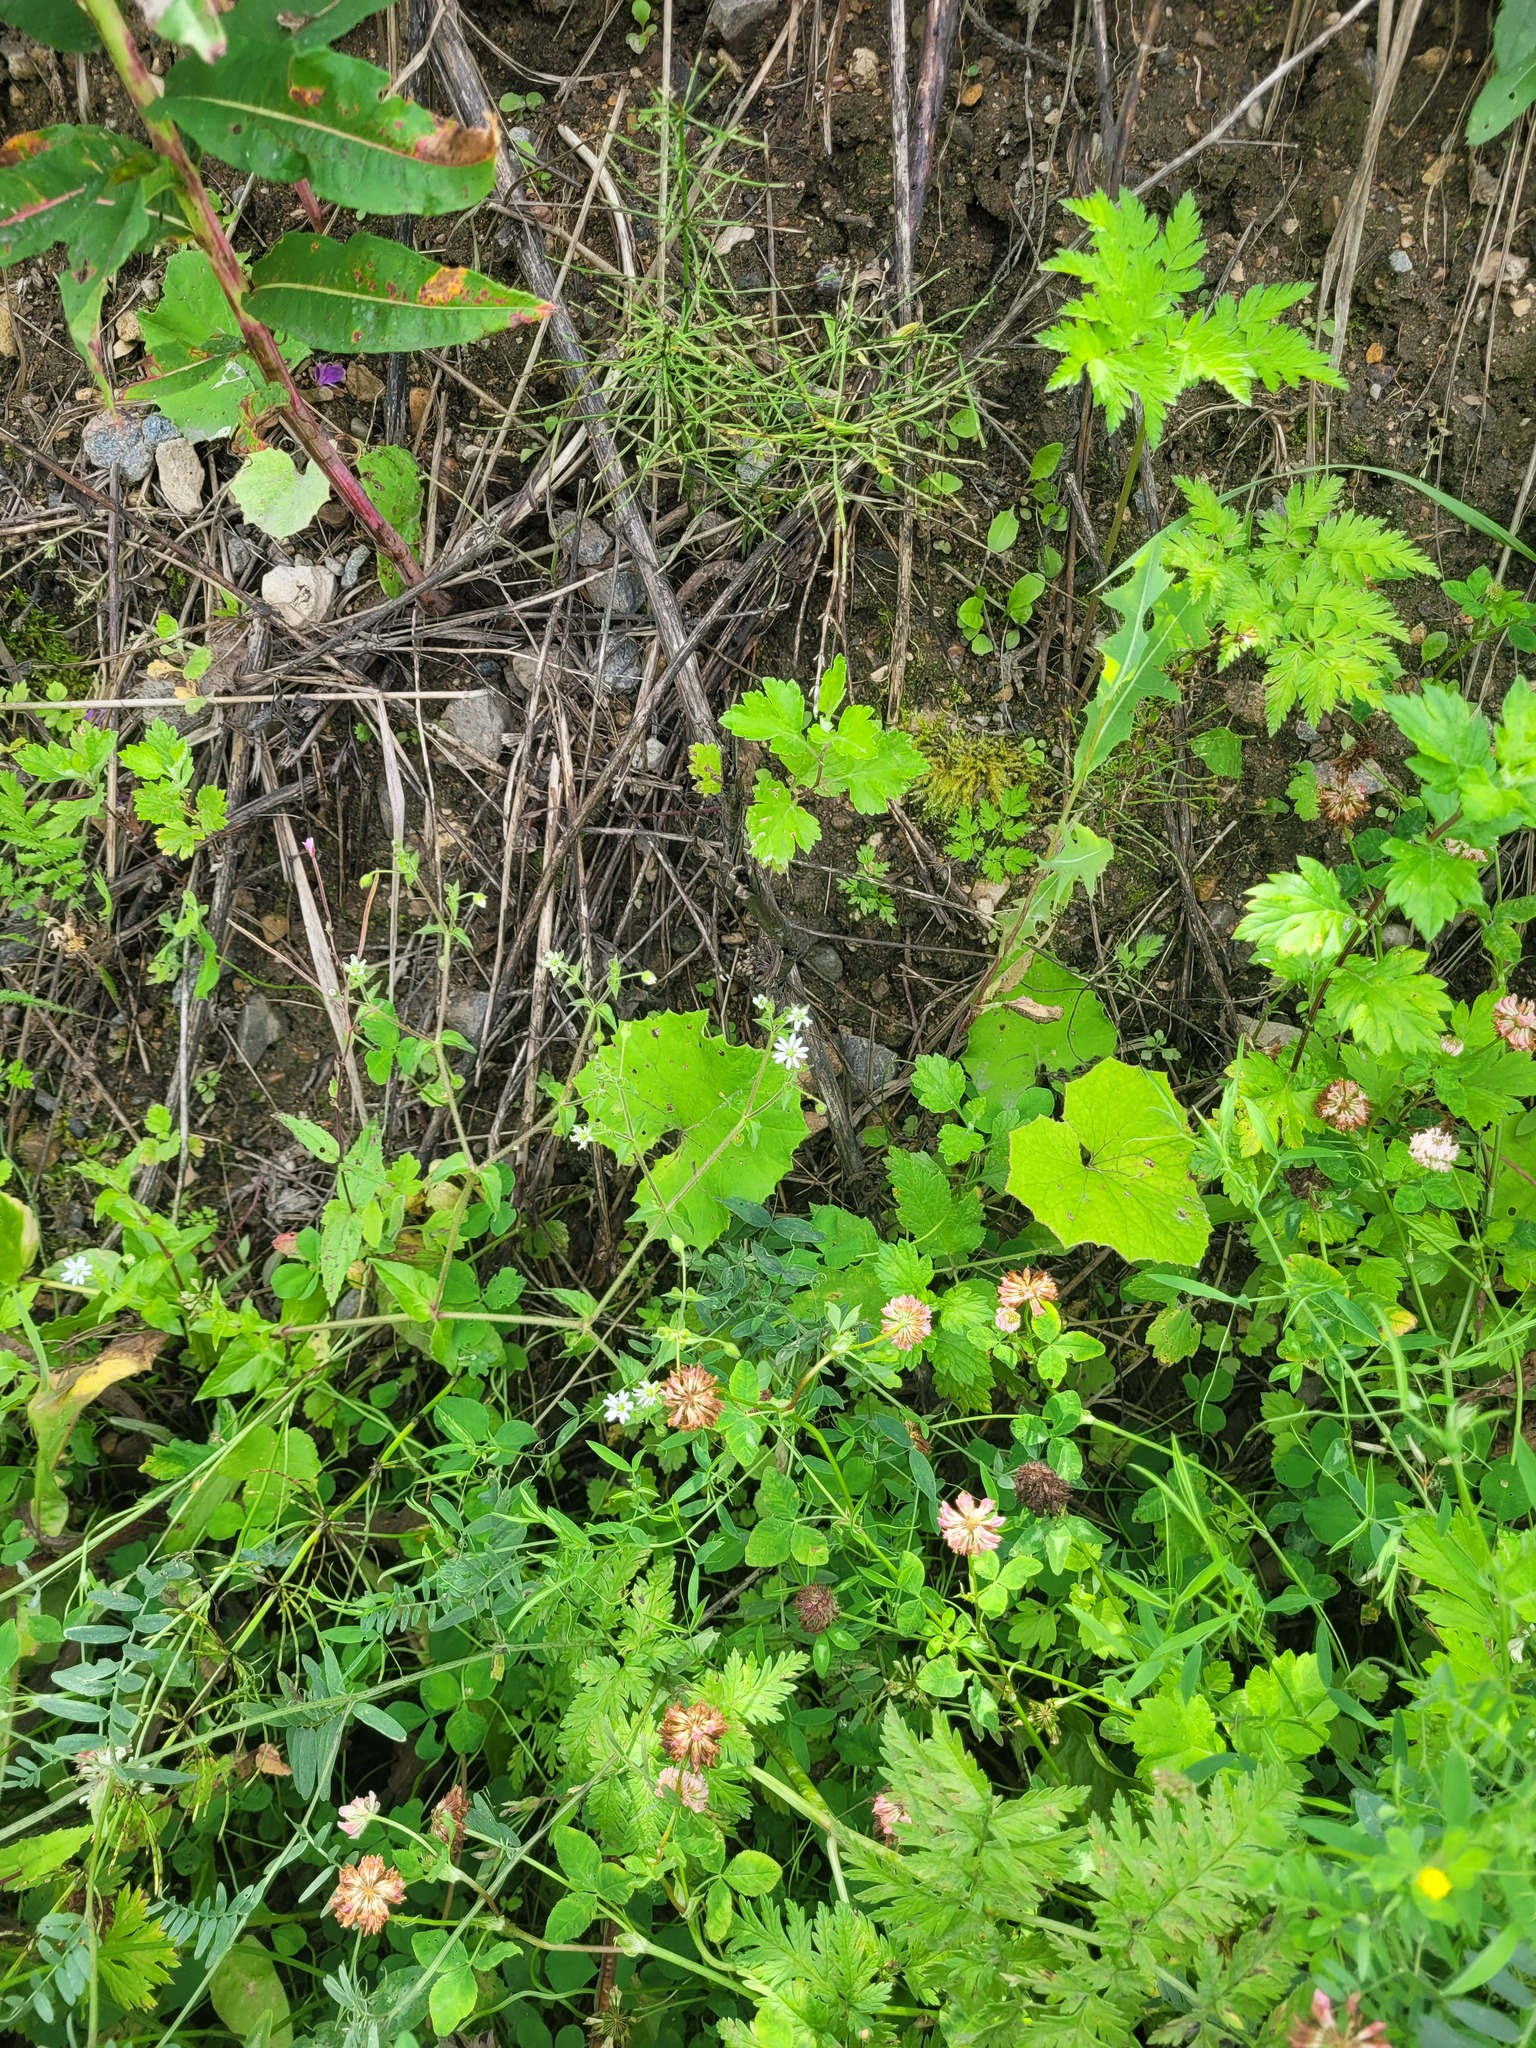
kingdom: Plantae
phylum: Tracheophyta
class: Magnoliopsida
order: Caryophyllales
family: Caryophyllaceae
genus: Stellaria
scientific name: Stellaria aquatica
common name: Water chickweed
